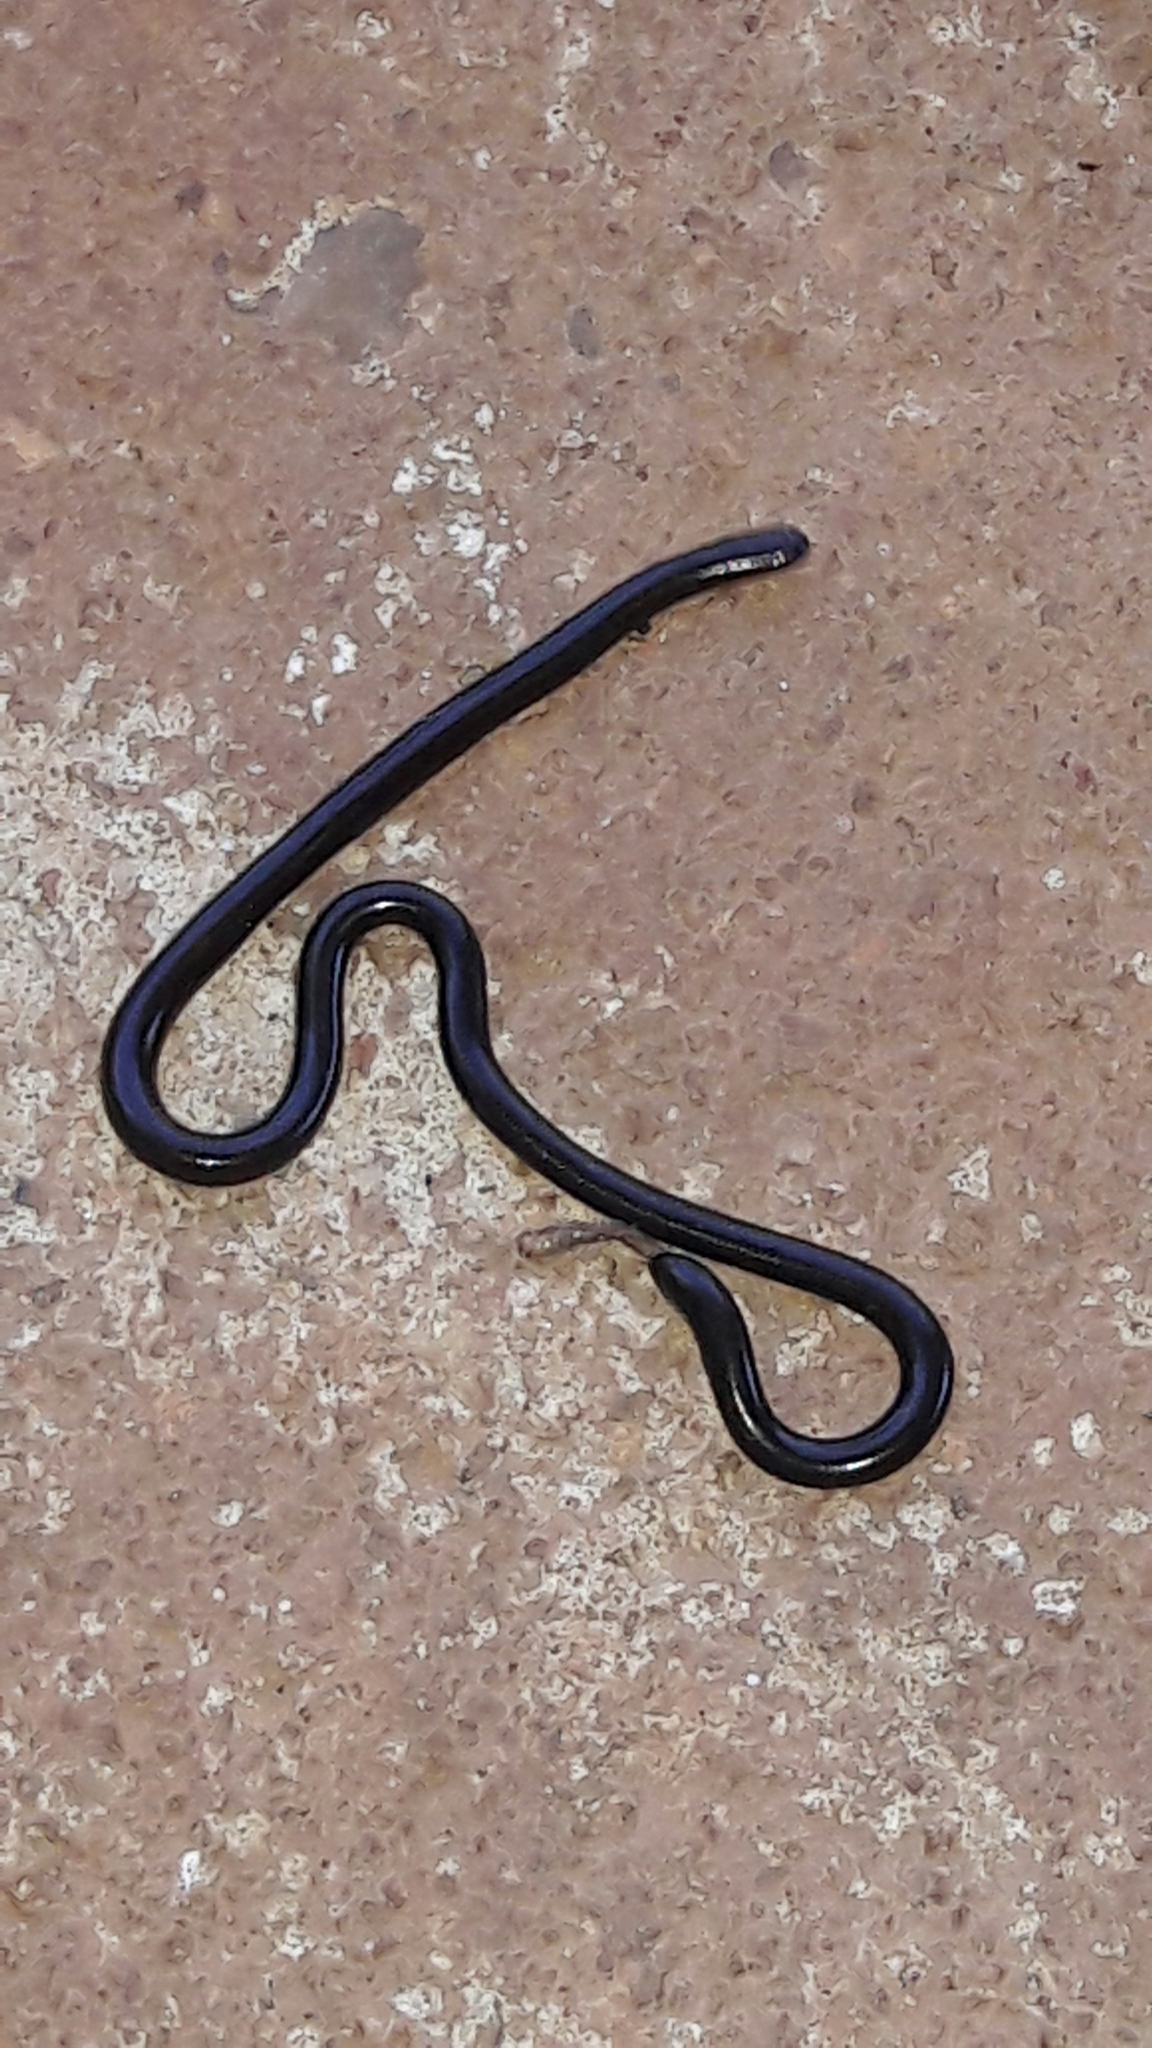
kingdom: Animalia
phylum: Chordata
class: Squamata
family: Anomalepididae
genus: Liotyphlops
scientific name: Liotyphlops ternetzii
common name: Ternetz's blind snake
